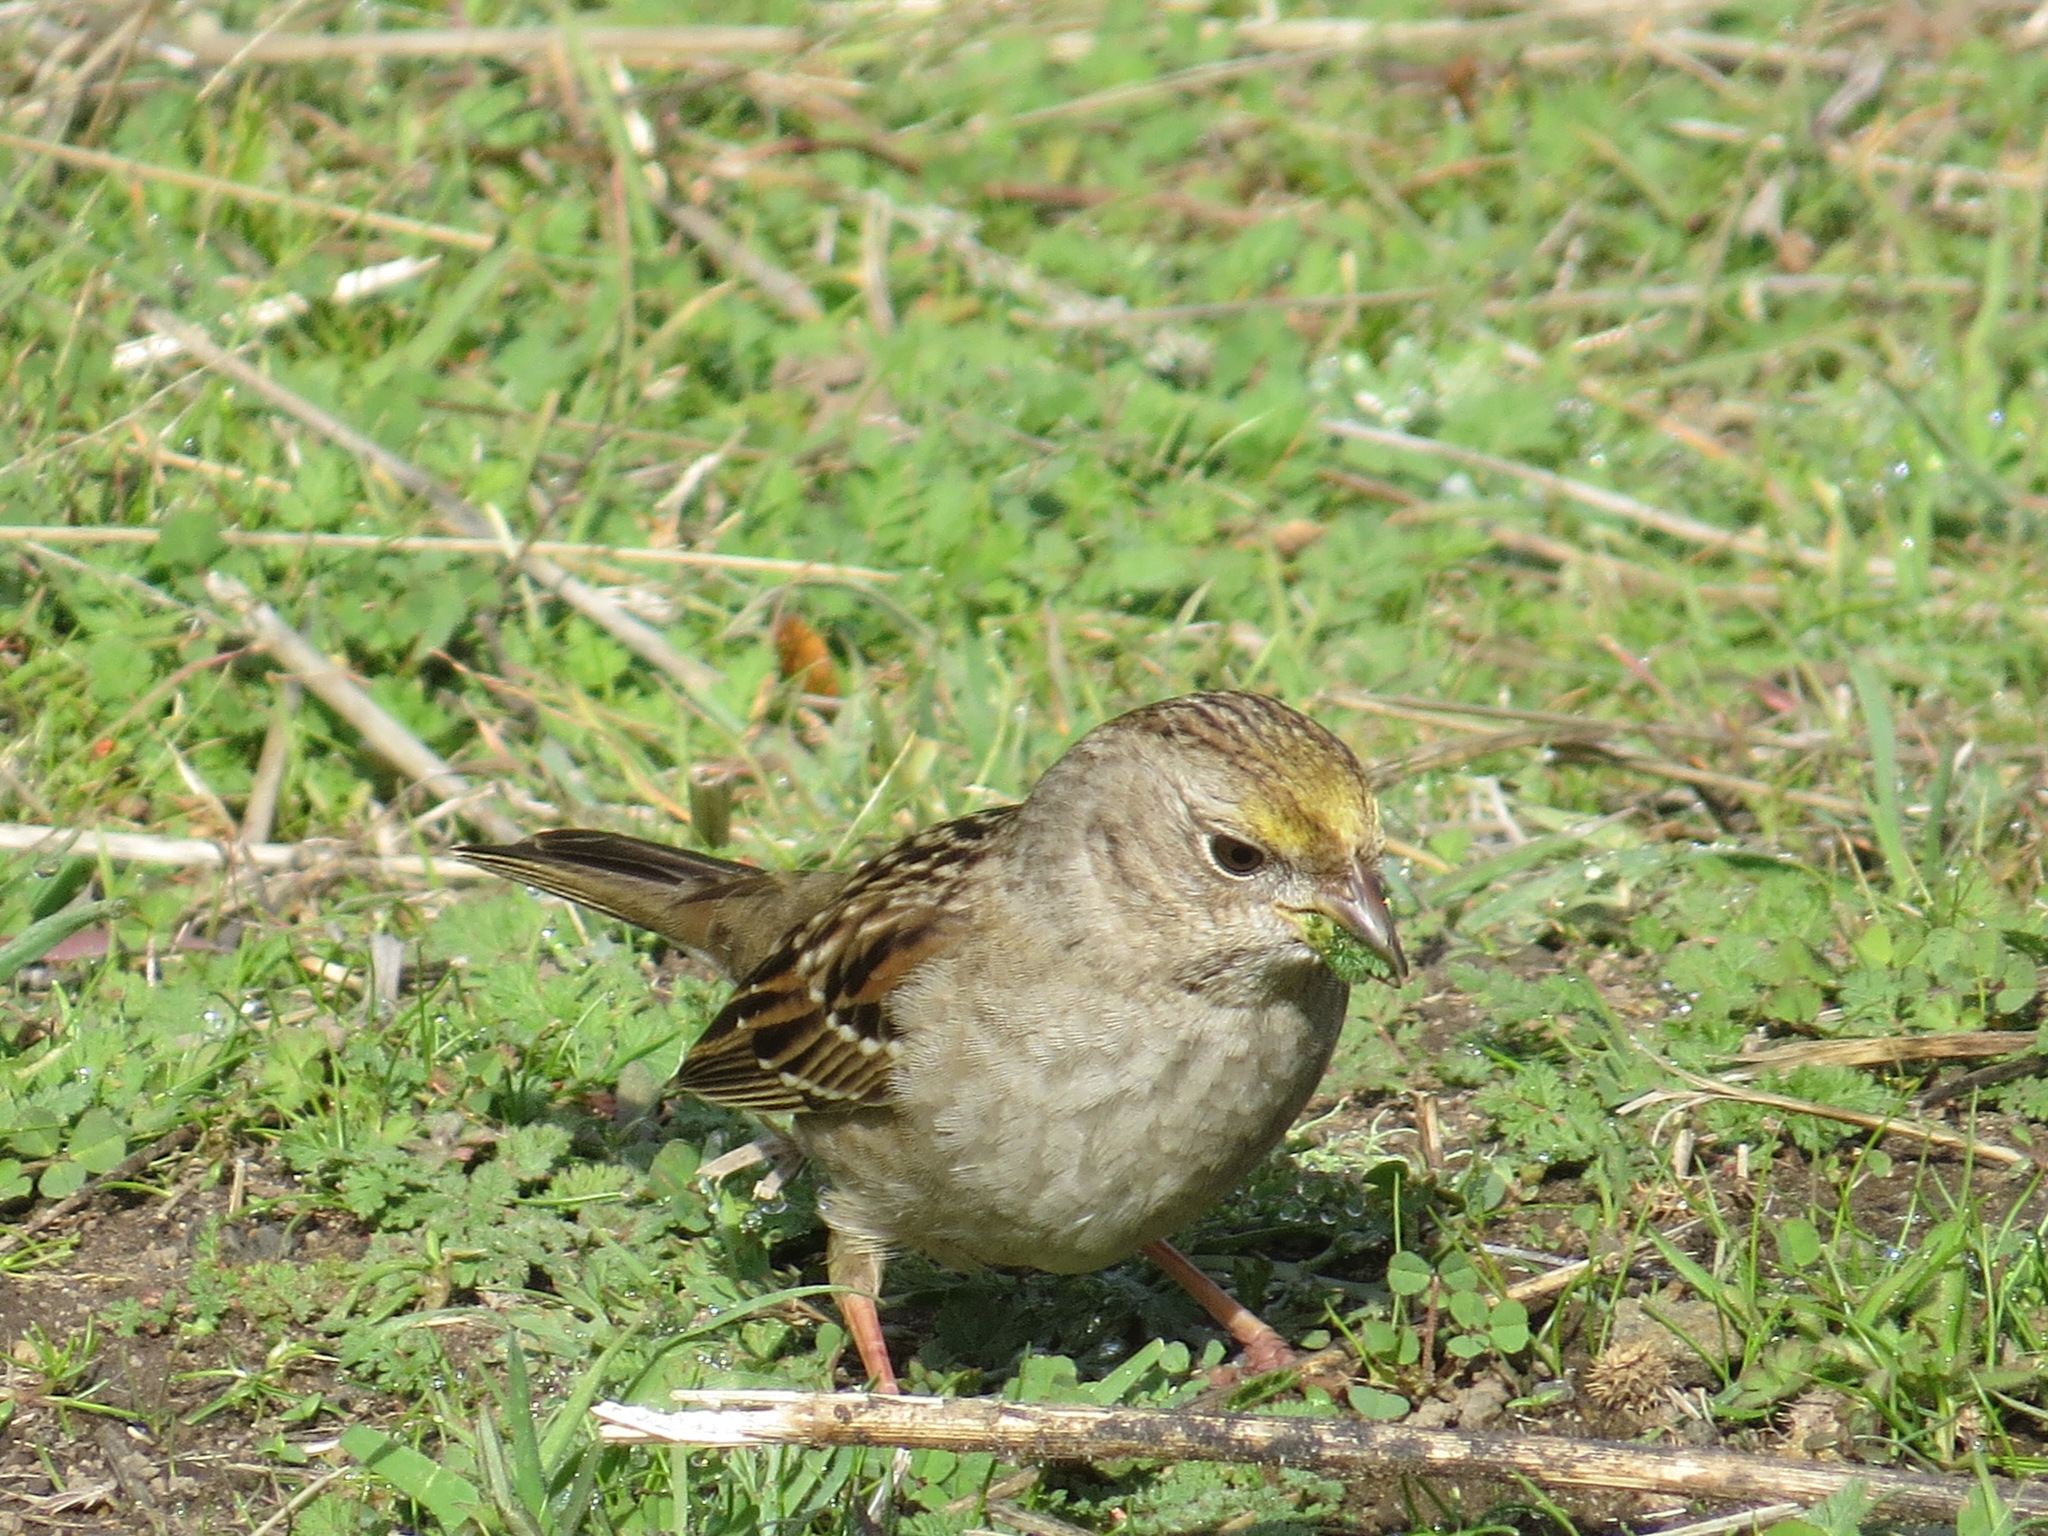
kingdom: Animalia
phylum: Chordata
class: Aves
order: Passeriformes
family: Passerellidae
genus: Zonotrichia
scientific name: Zonotrichia atricapilla
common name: Golden-crowned sparrow
